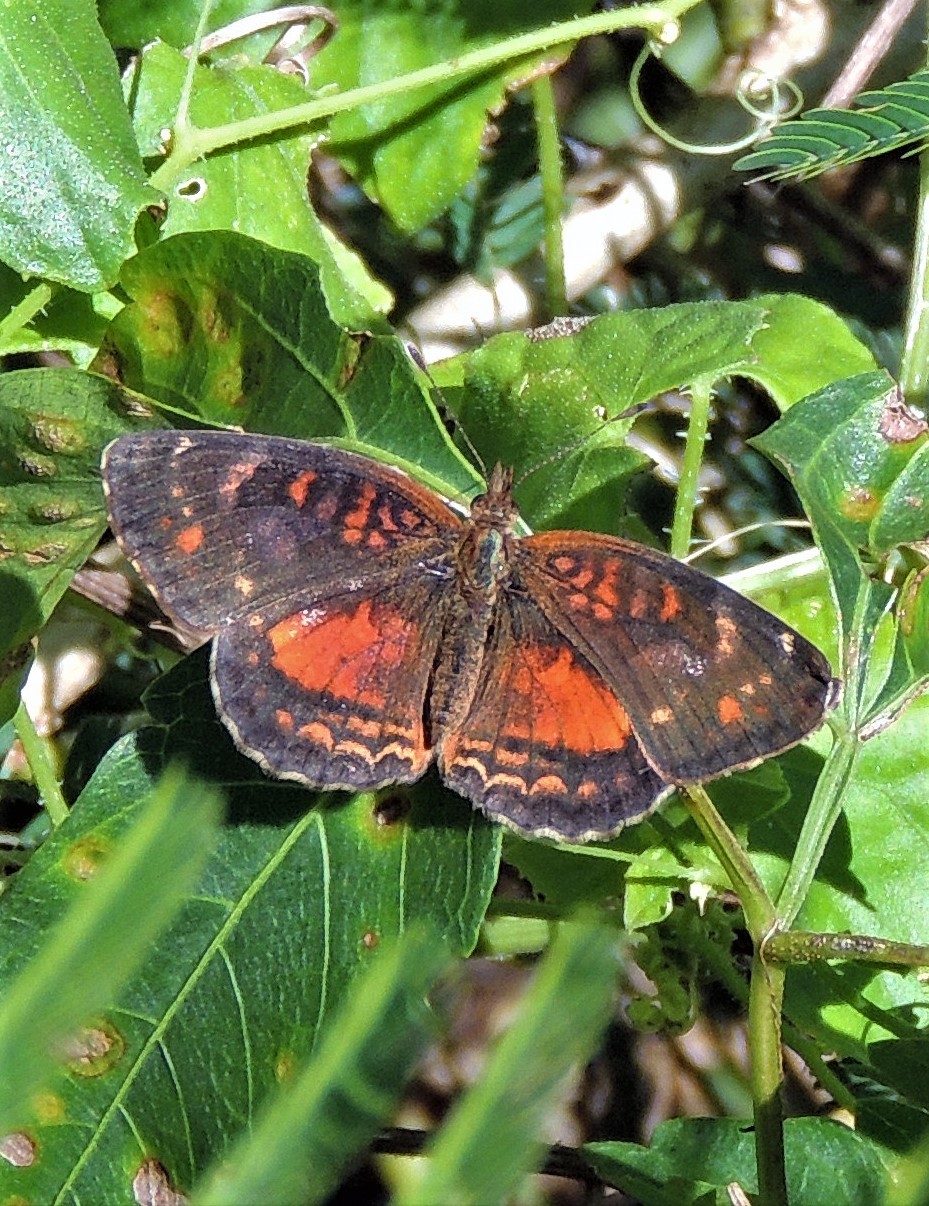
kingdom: Animalia
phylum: Arthropoda
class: Insecta
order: Lepidoptera
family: Nymphalidae
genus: Ortilia
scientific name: Ortilia velica
